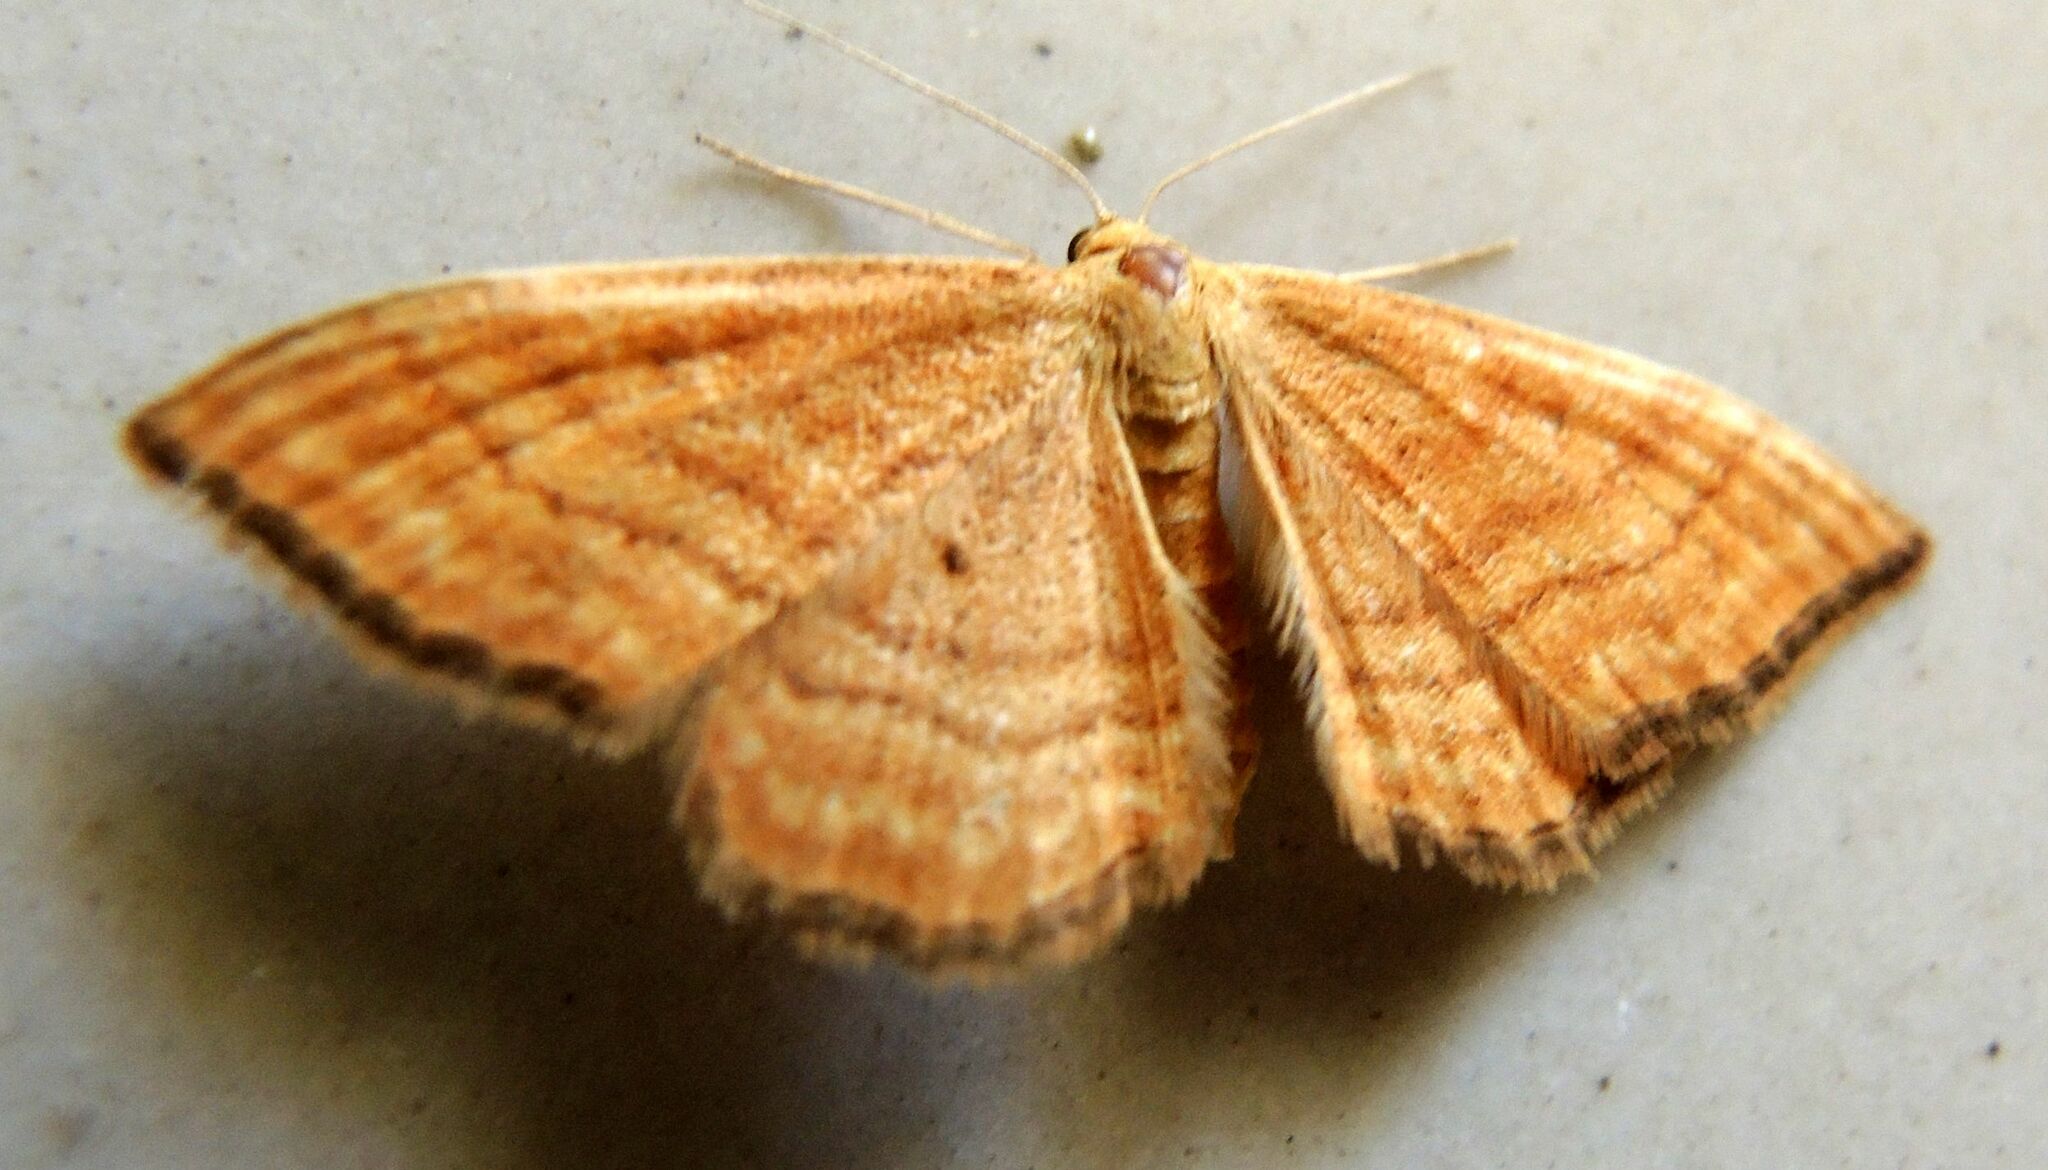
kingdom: Animalia
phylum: Arthropoda
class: Insecta
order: Lepidoptera
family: Geometridae
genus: Idaea
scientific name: Idaea ochrata
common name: Bright wave
